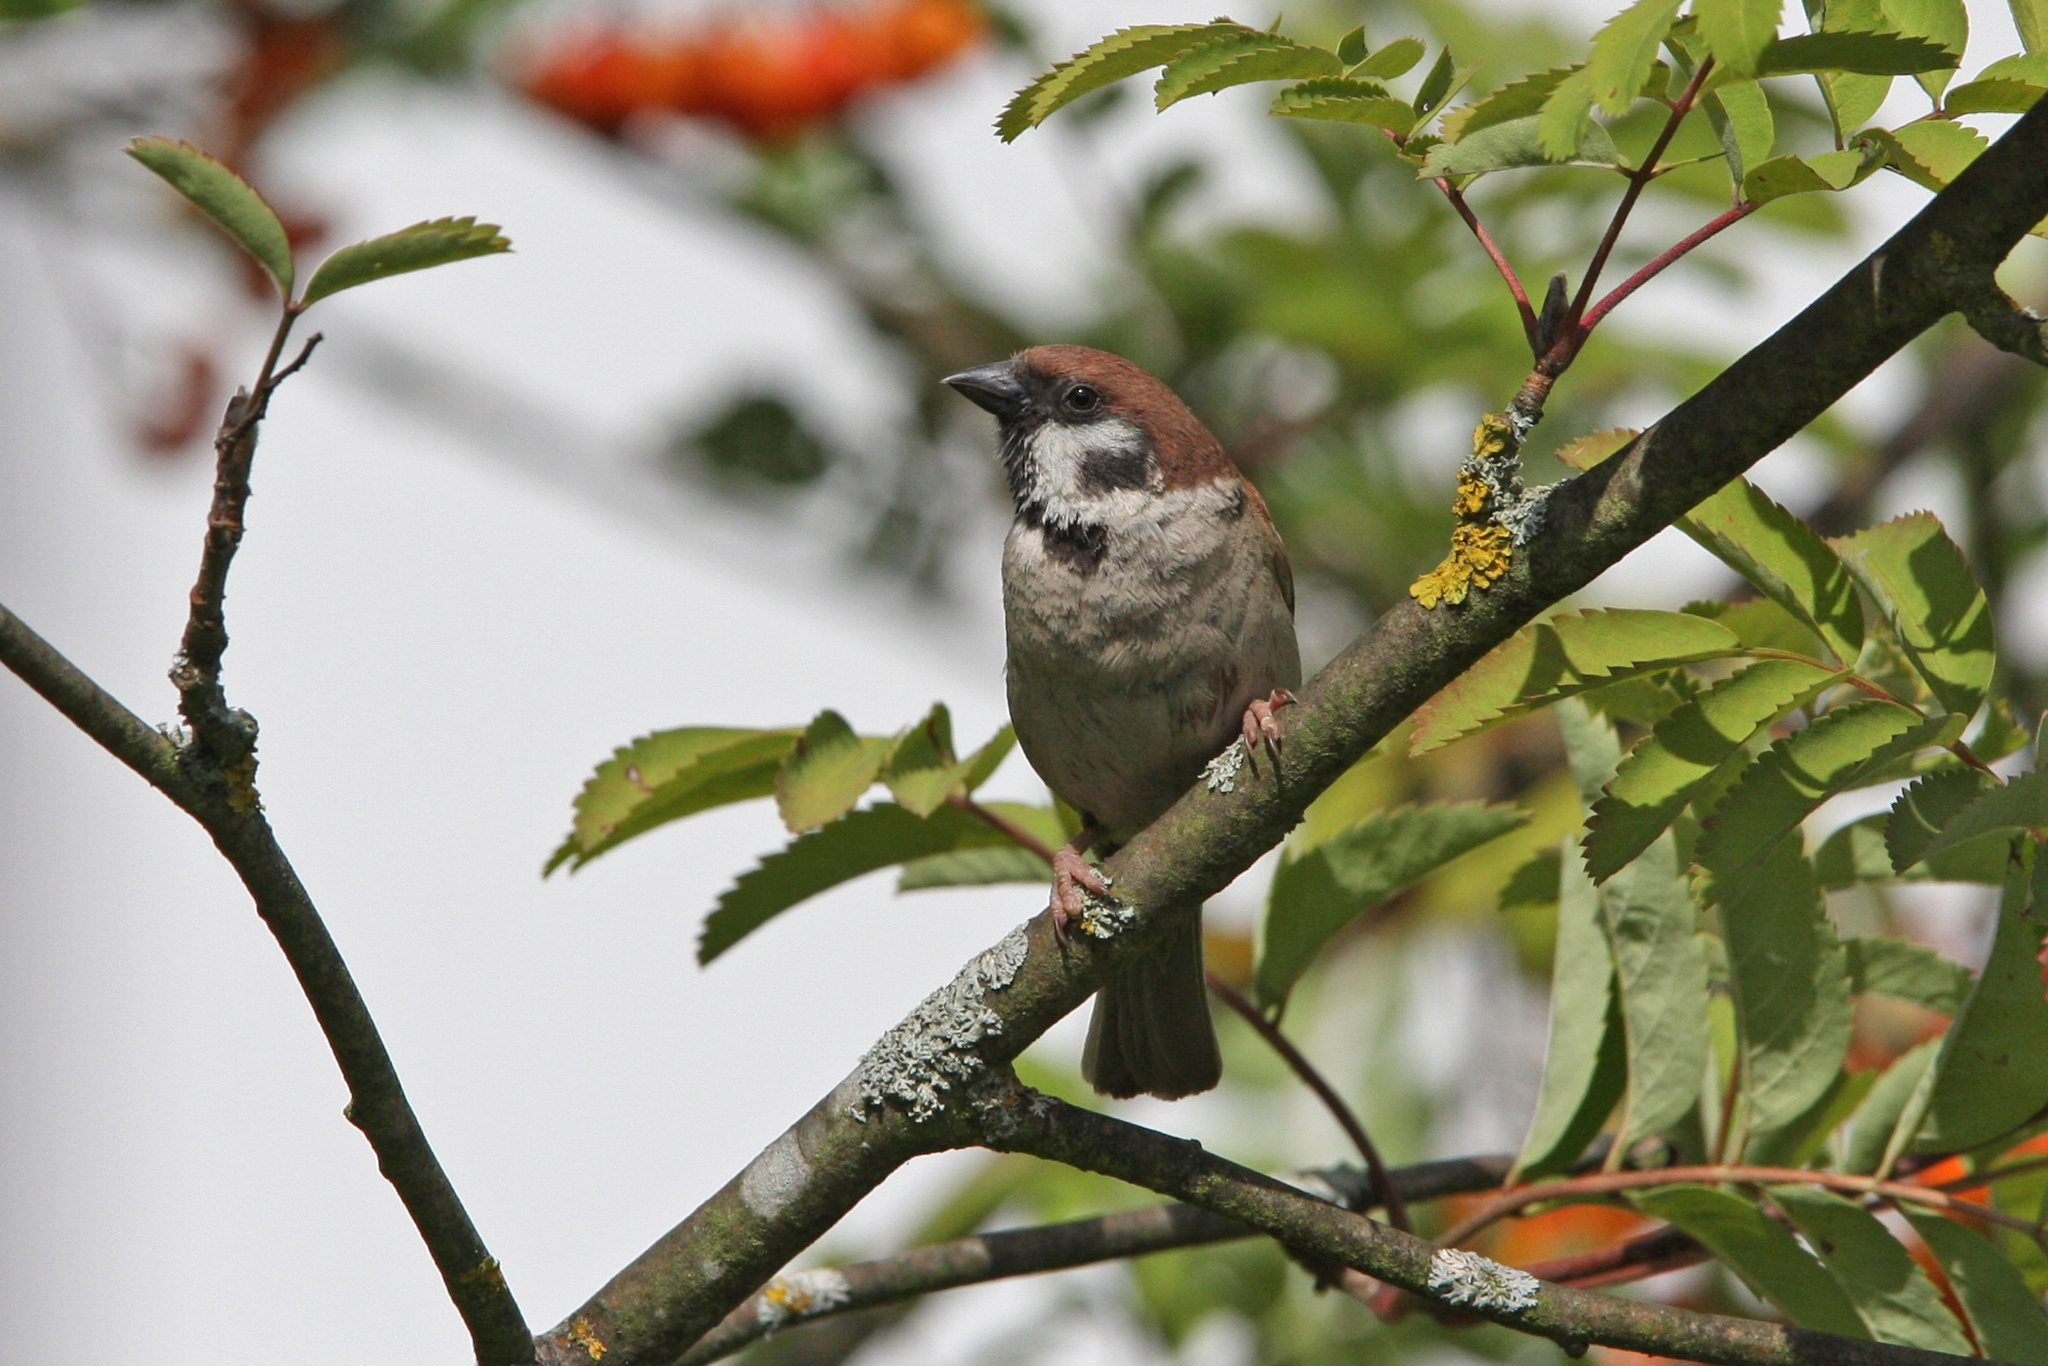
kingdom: Animalia
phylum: Chordata
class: Aves
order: Passeriformes
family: Passeridae
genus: Passer
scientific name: Passer montanus
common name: Eurasian tree sparrow
